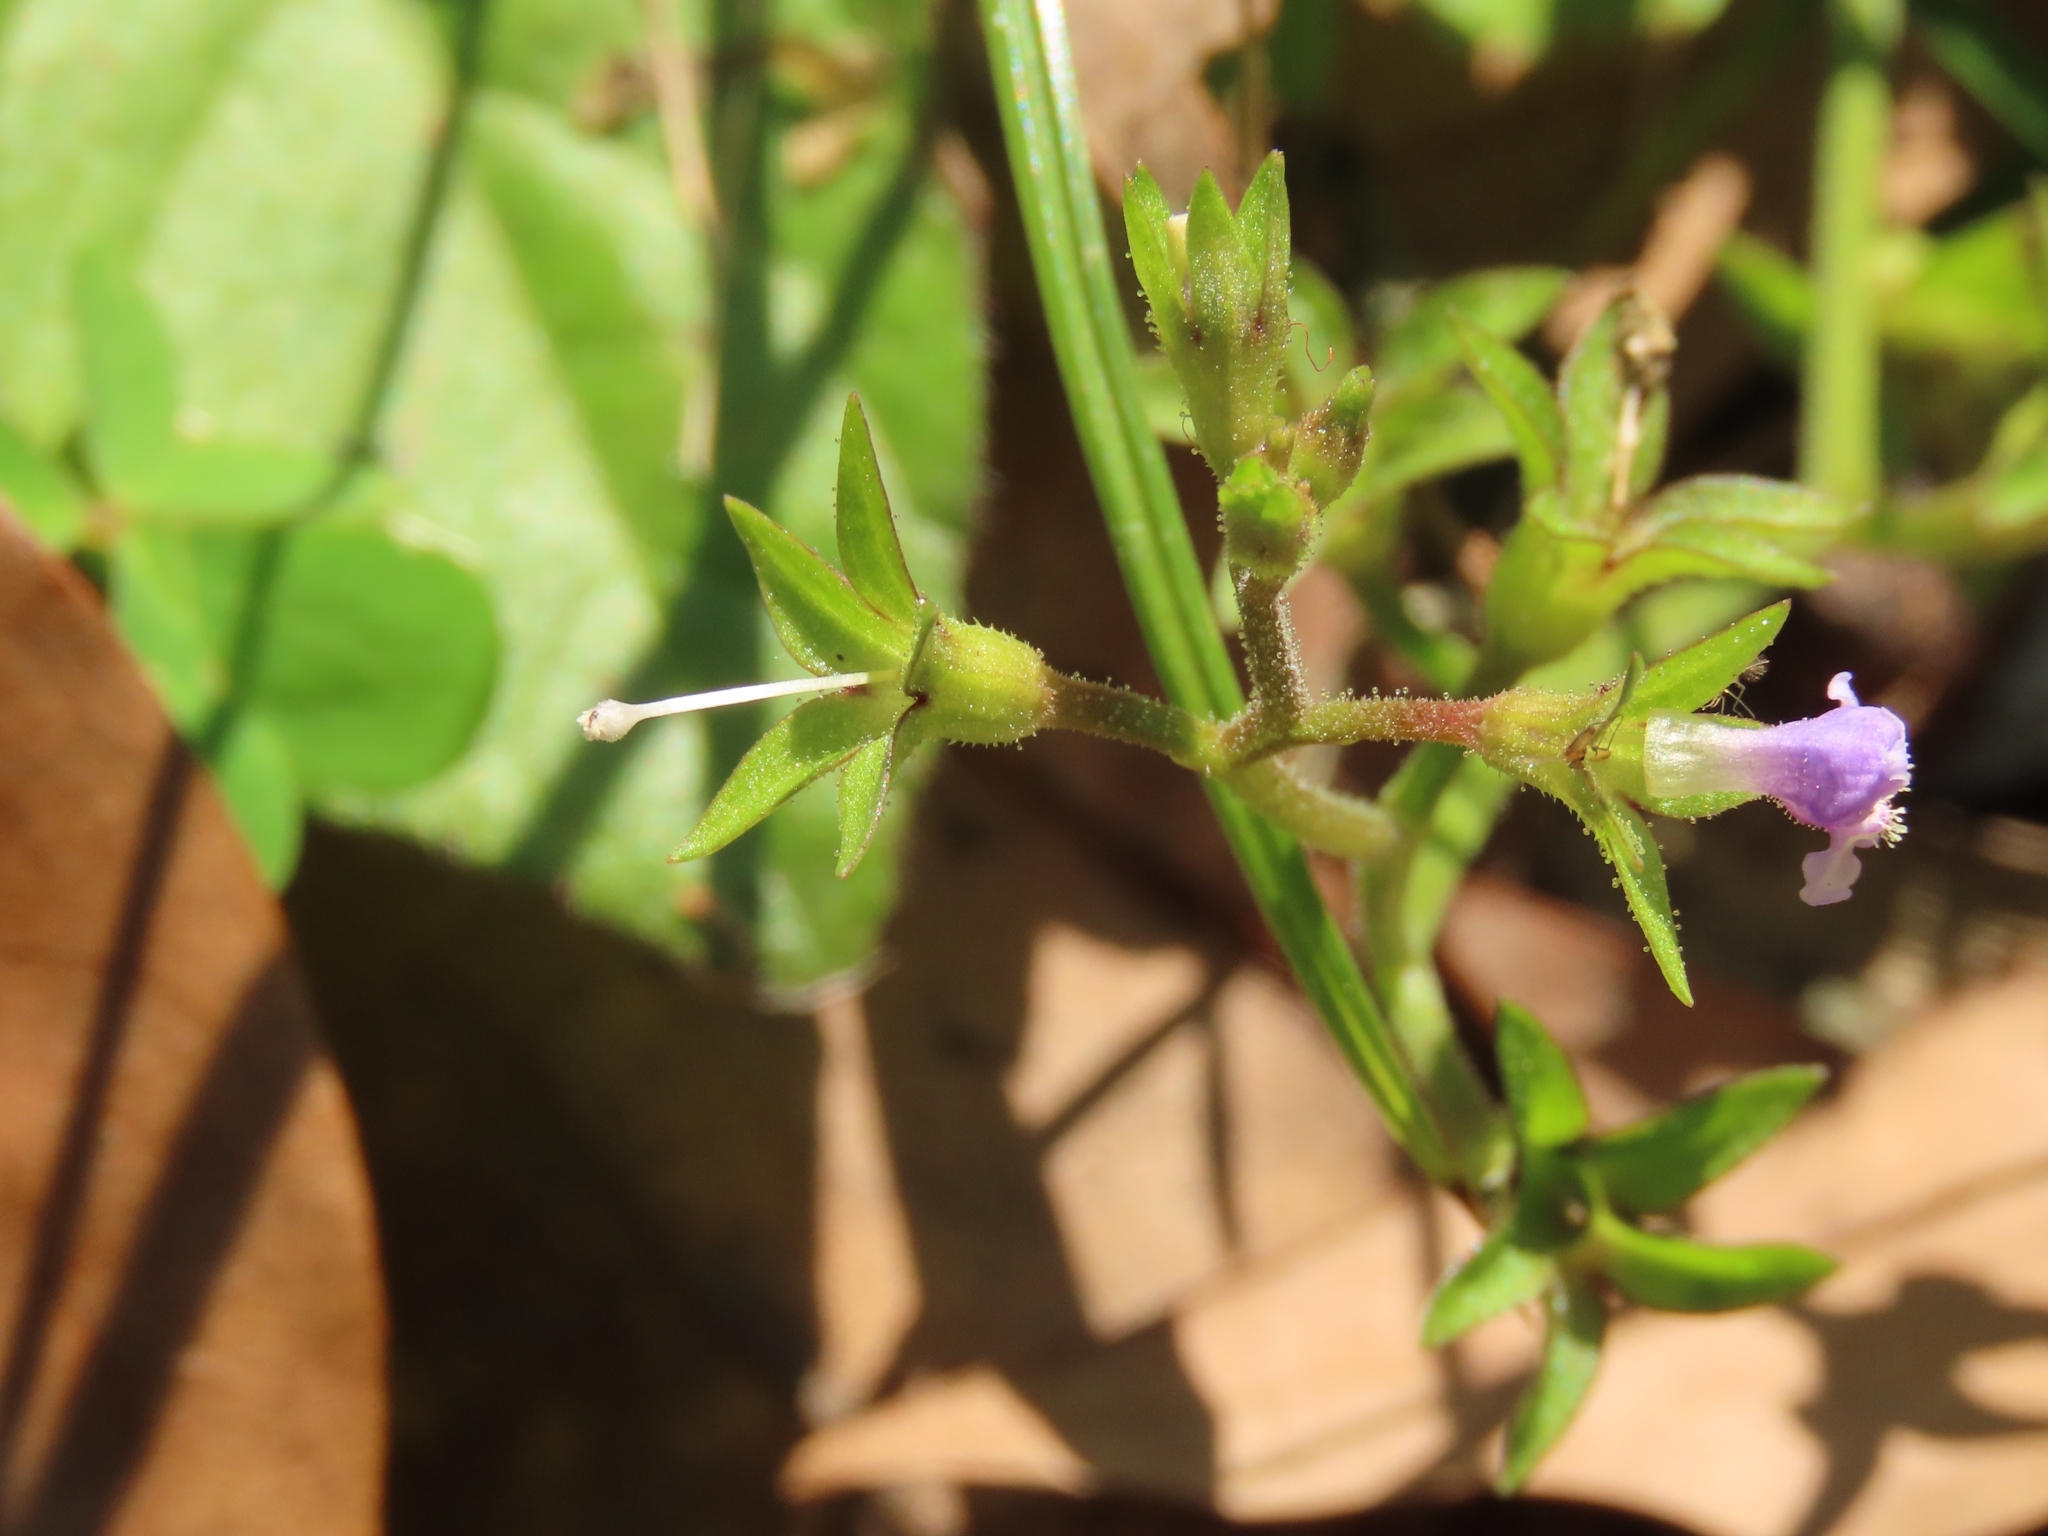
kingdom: Plantae
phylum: Tracheophyta
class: Magnoliopsida
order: Lamiales
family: Mazaceae
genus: Mazus
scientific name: Mazus pumilus
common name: Japanese mazus
